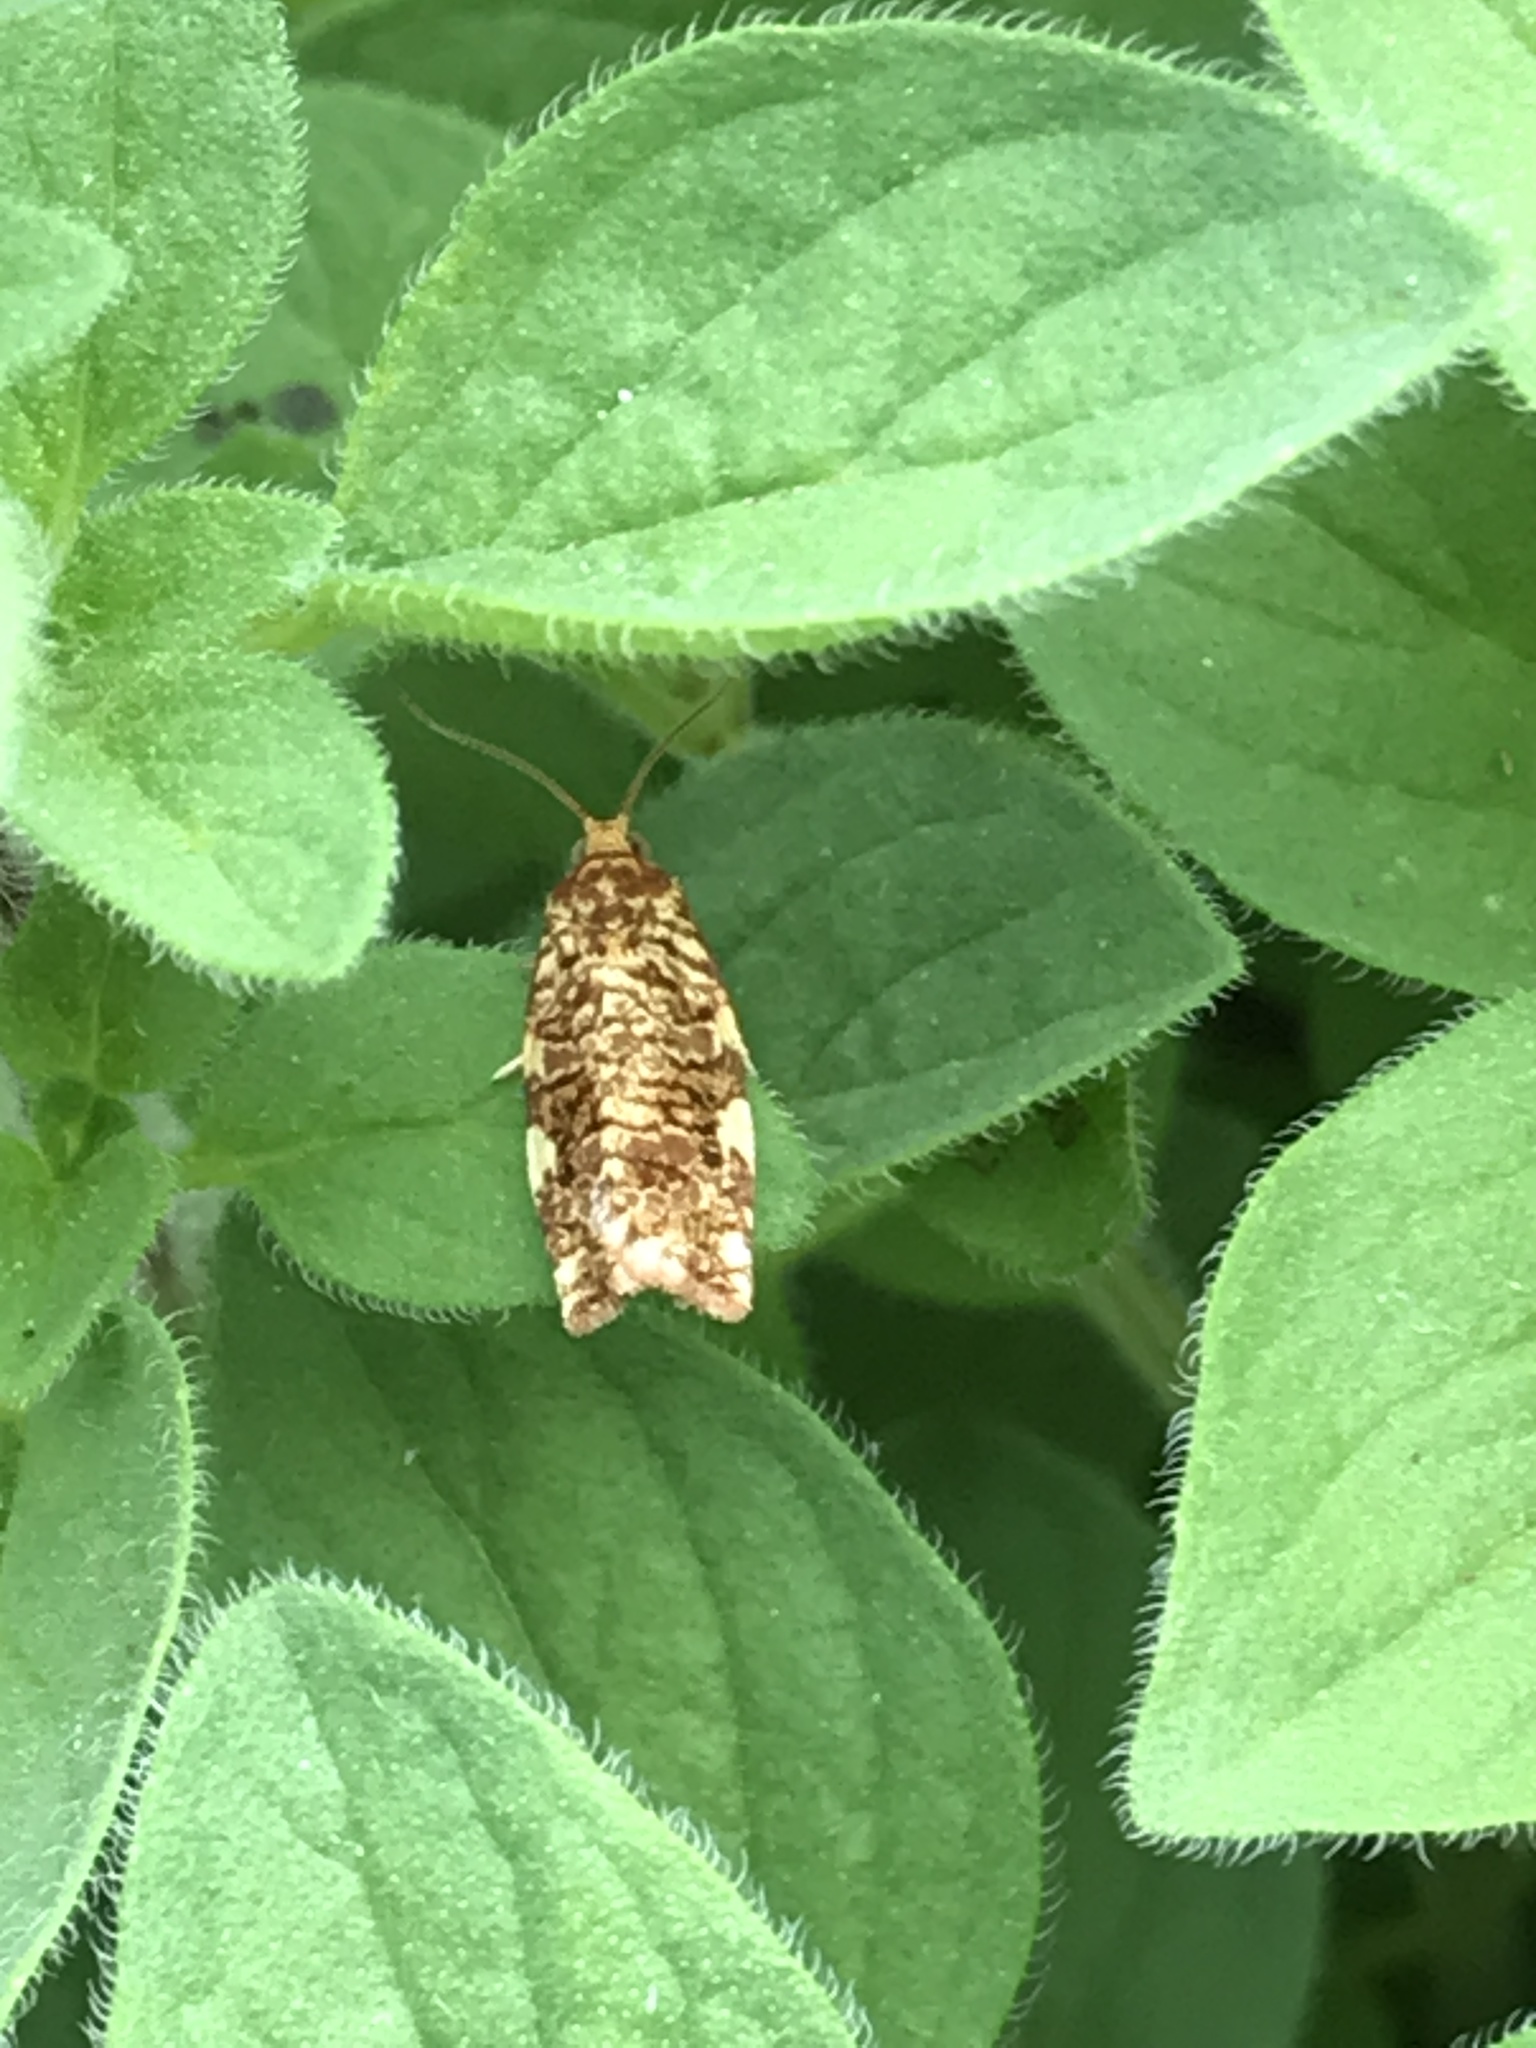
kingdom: Animalia
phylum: Arthropoda
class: Insecta
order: Lepidoptera
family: Tortricidae
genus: Archips
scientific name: Archips argyrospila
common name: Fruit-tree leafroller moth
